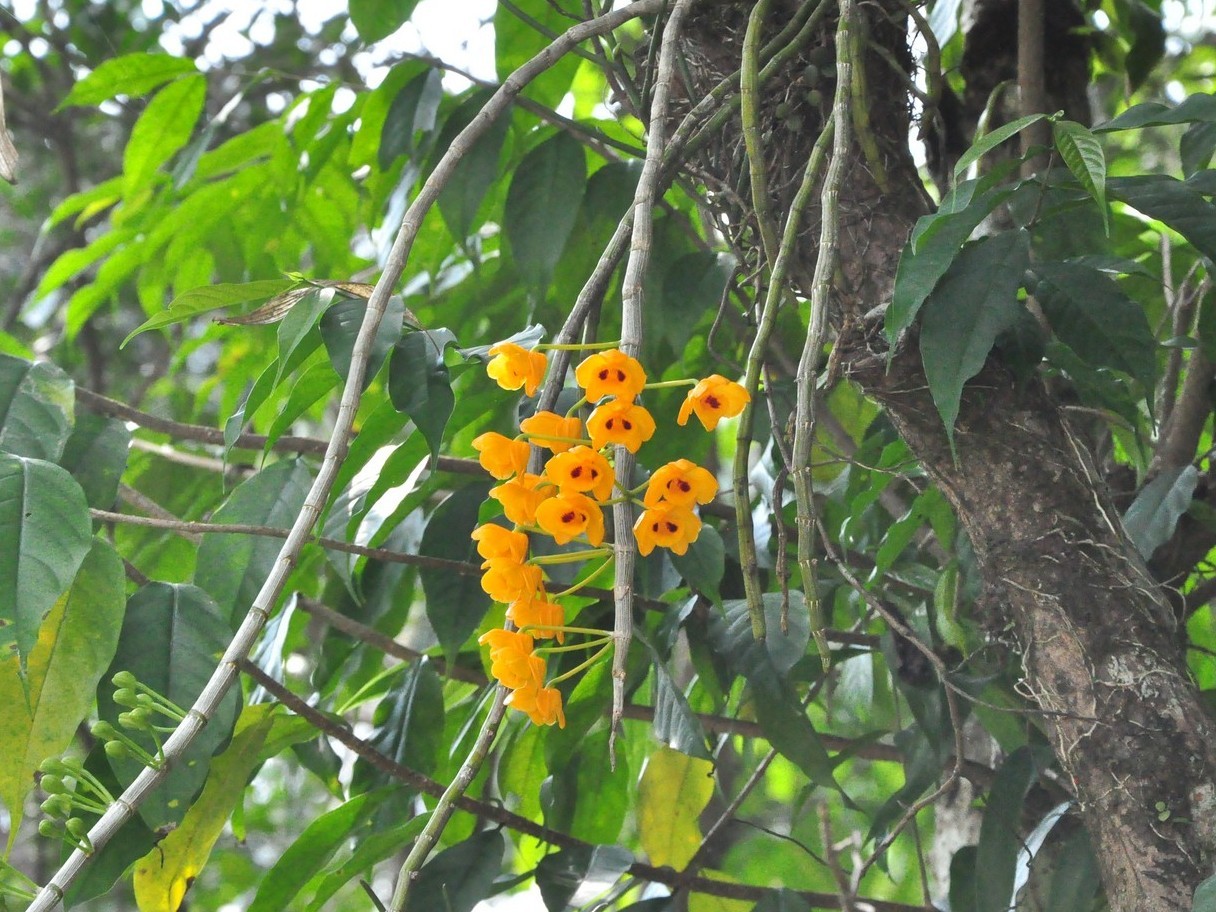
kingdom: Plantae
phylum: Tracheophyta
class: Liliopsida
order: Asparagales
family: Orchidaceae
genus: Dendrobium
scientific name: Dendrobium chrysanthum
